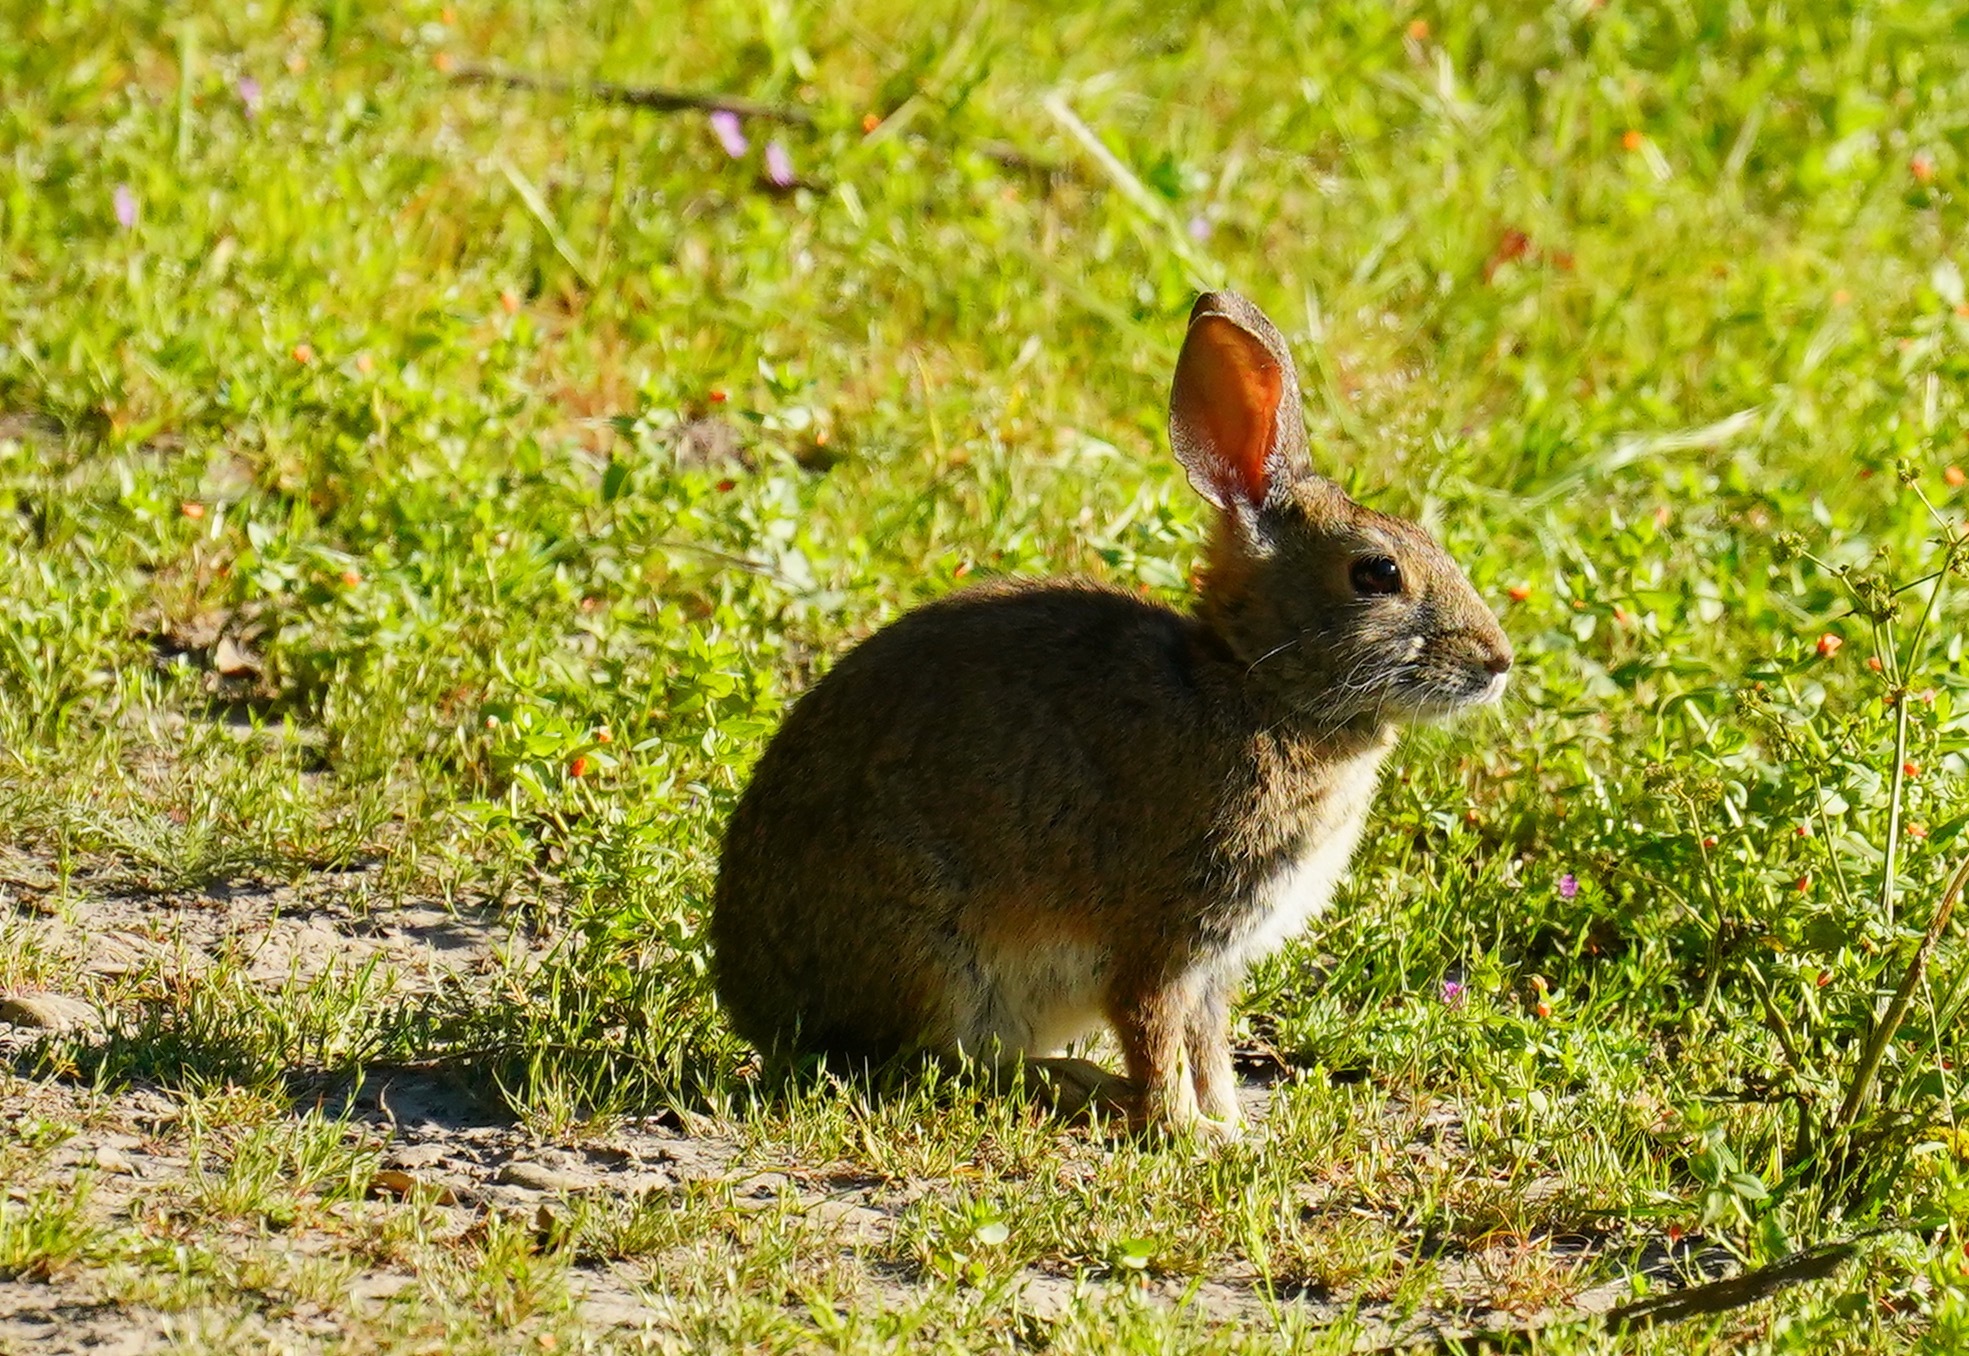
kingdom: Animalia
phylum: Chordata
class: Mammalia
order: Lagomorpha
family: Leporidae
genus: Sylvilagus
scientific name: Sylvilagus bachmani
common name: Brush rabbit
